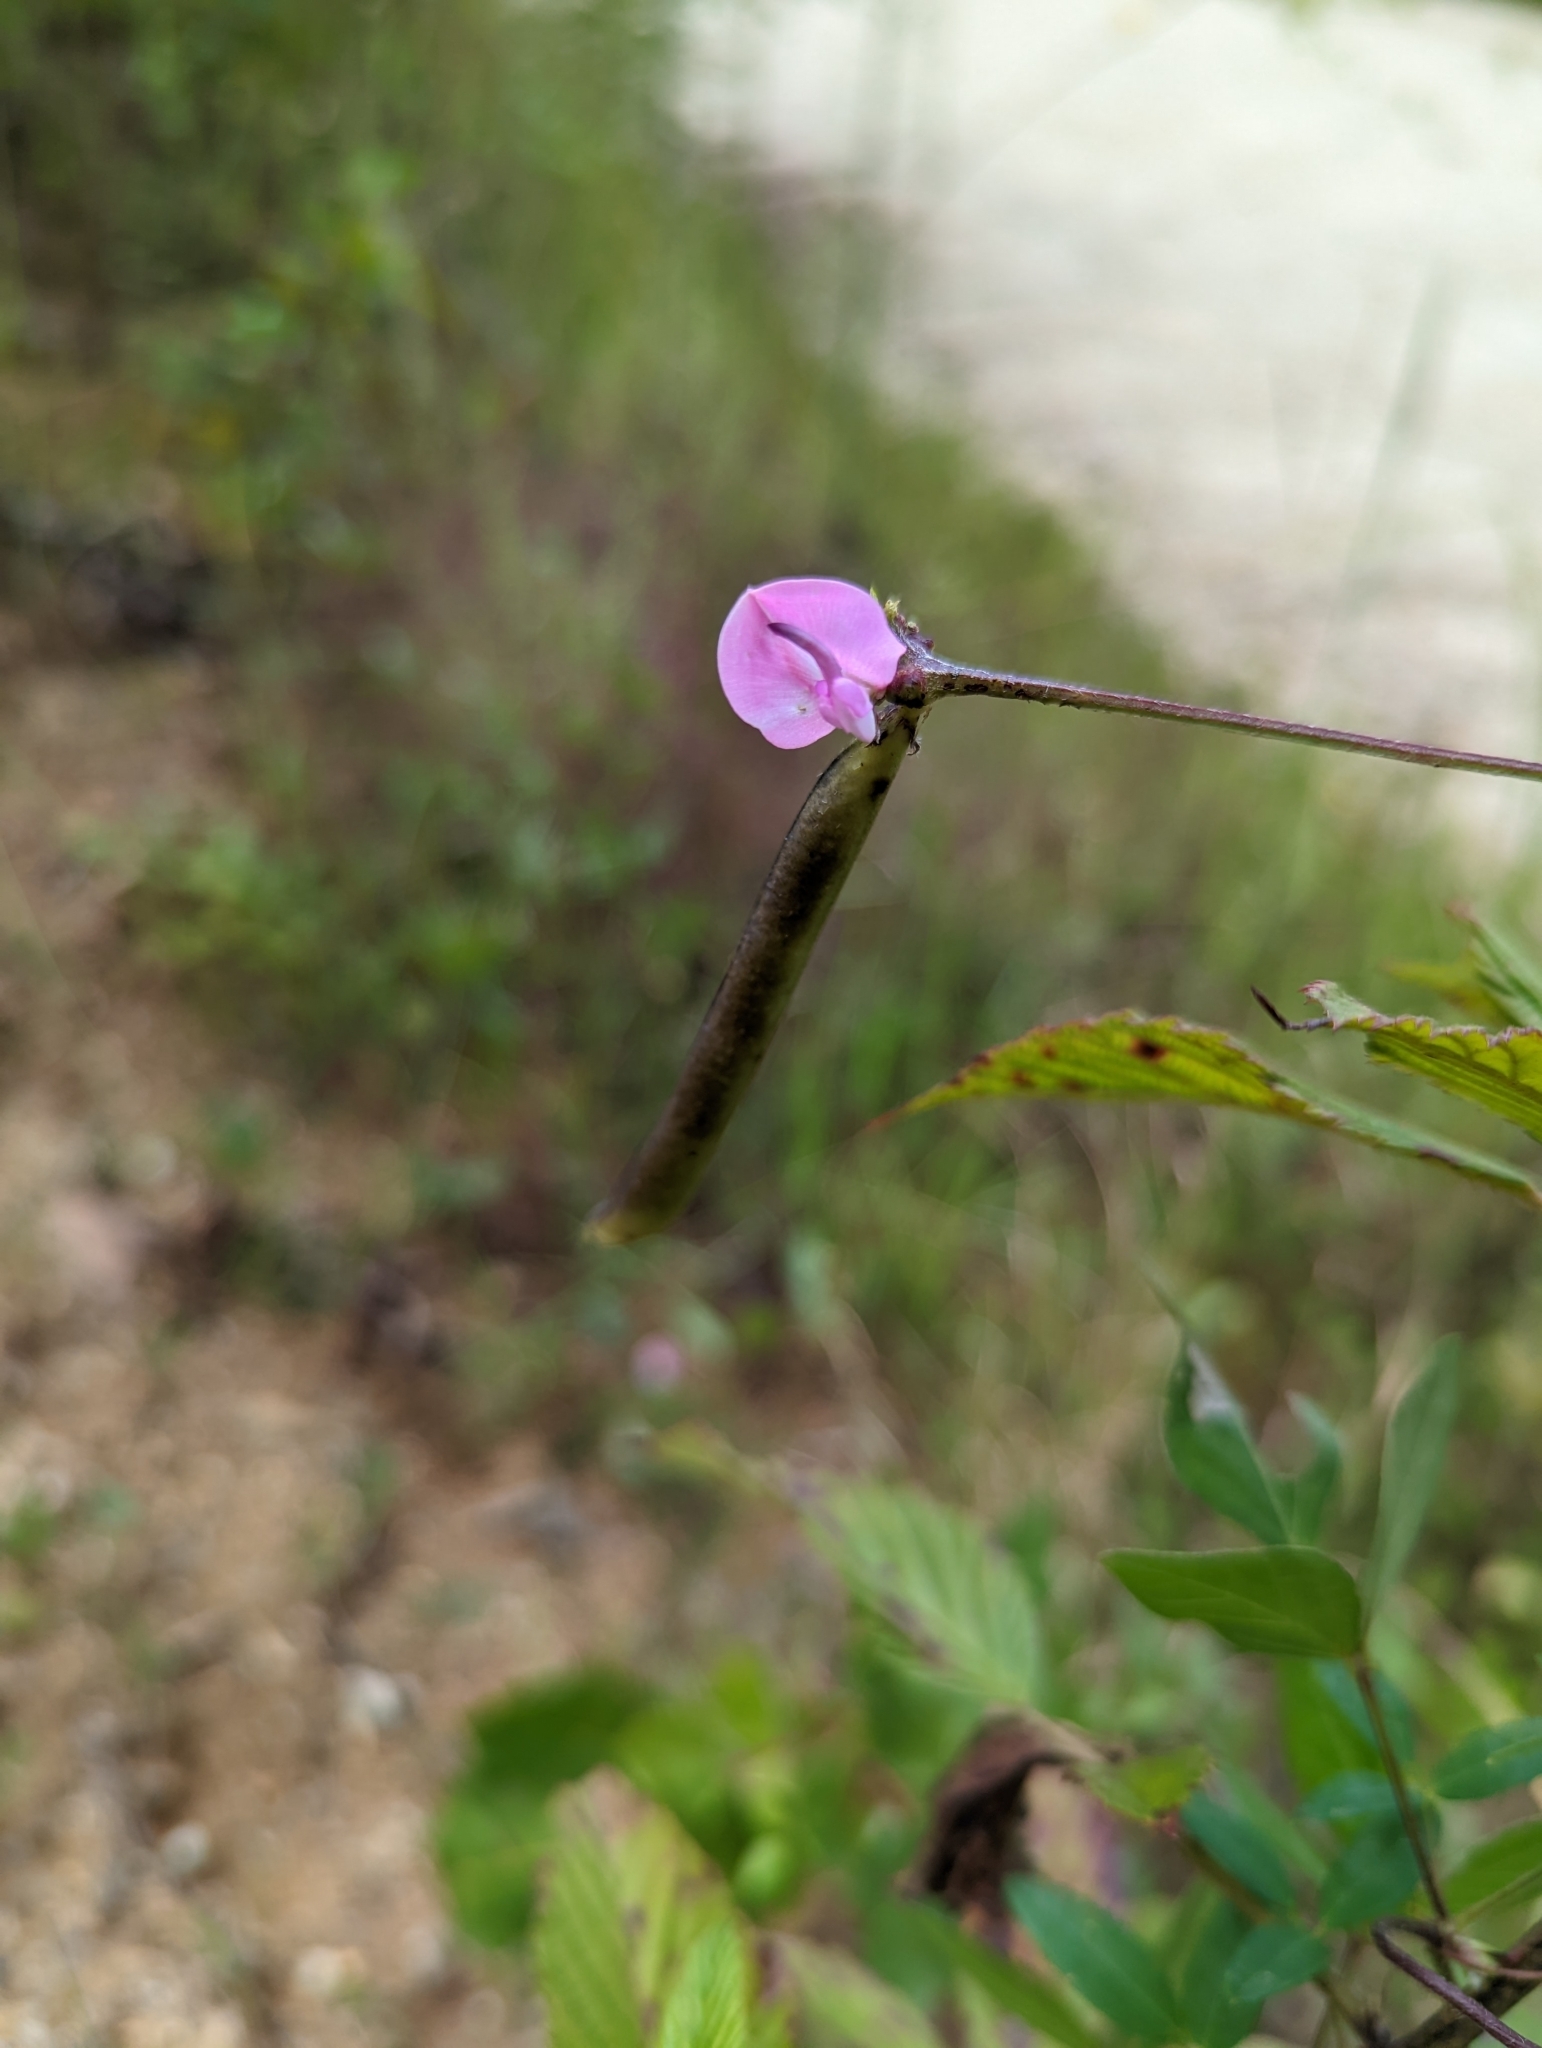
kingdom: Plantae
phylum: Tracheophyta
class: Magnoliopsida
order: Fabales
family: Fabaceae
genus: Strophostyles
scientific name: Strophostyles helvola
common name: Trailing wild bean
